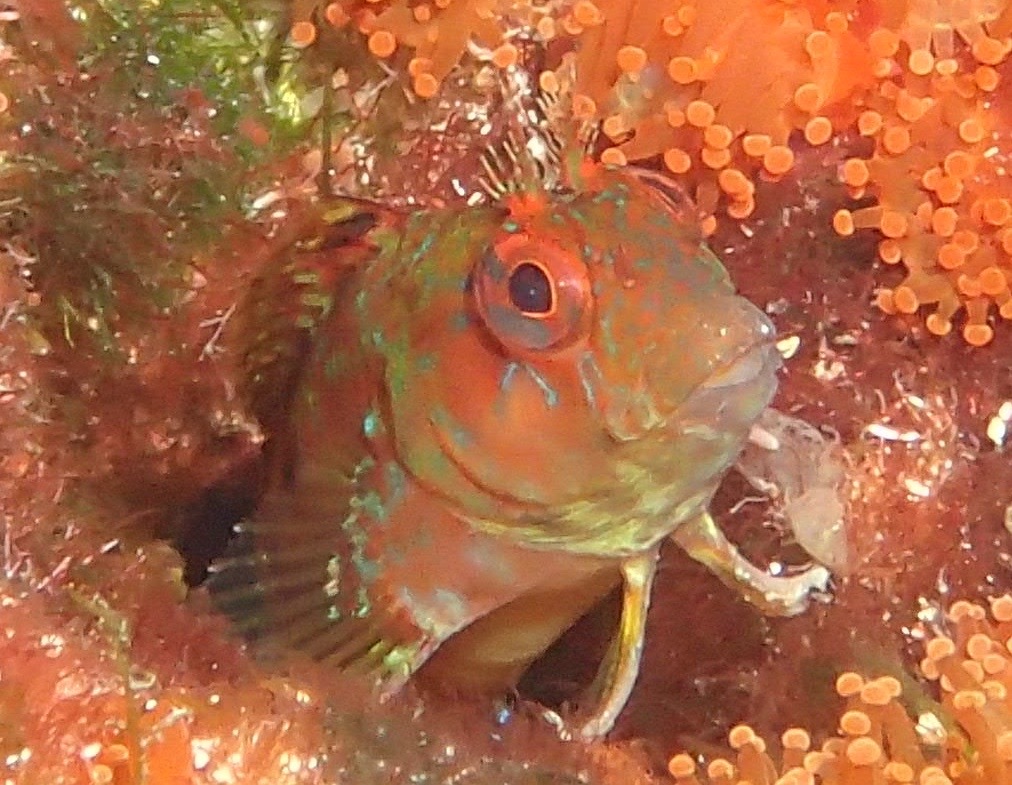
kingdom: Animalia
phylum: Chordata
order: Perciformes
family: Blenniidae
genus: Parablennius
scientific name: Parablennius ruber
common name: Portuguese blenny
